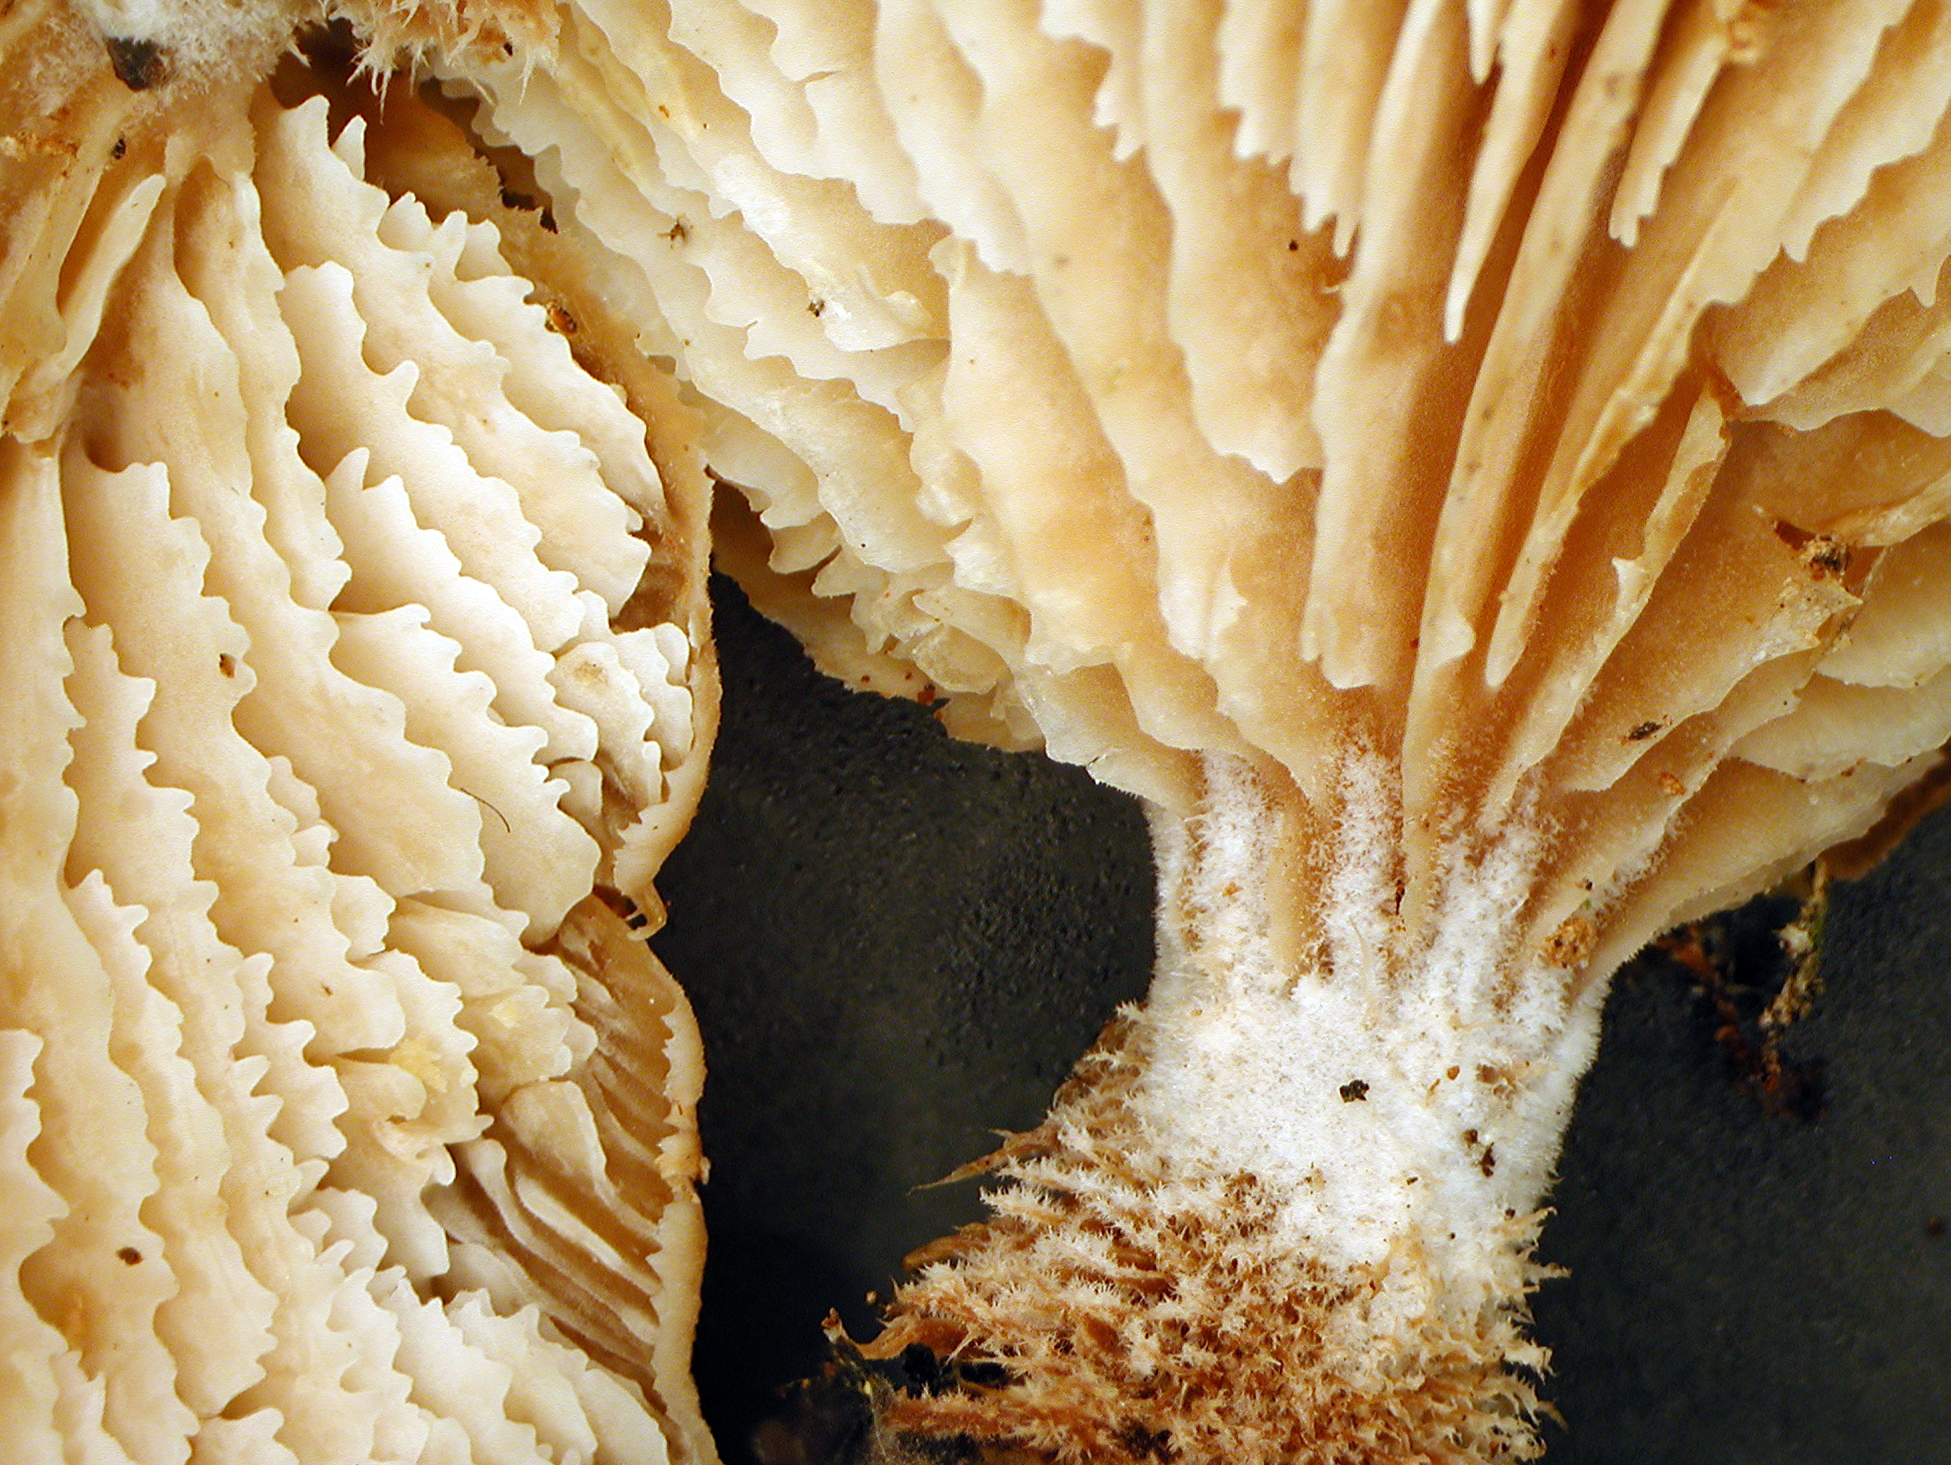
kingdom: Fungi
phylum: Basidiomycota
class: Agaricomycetes
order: Russulales
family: Auriscalpiaceae
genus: Lentinellus
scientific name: Lentinellus novae-zelandiae
